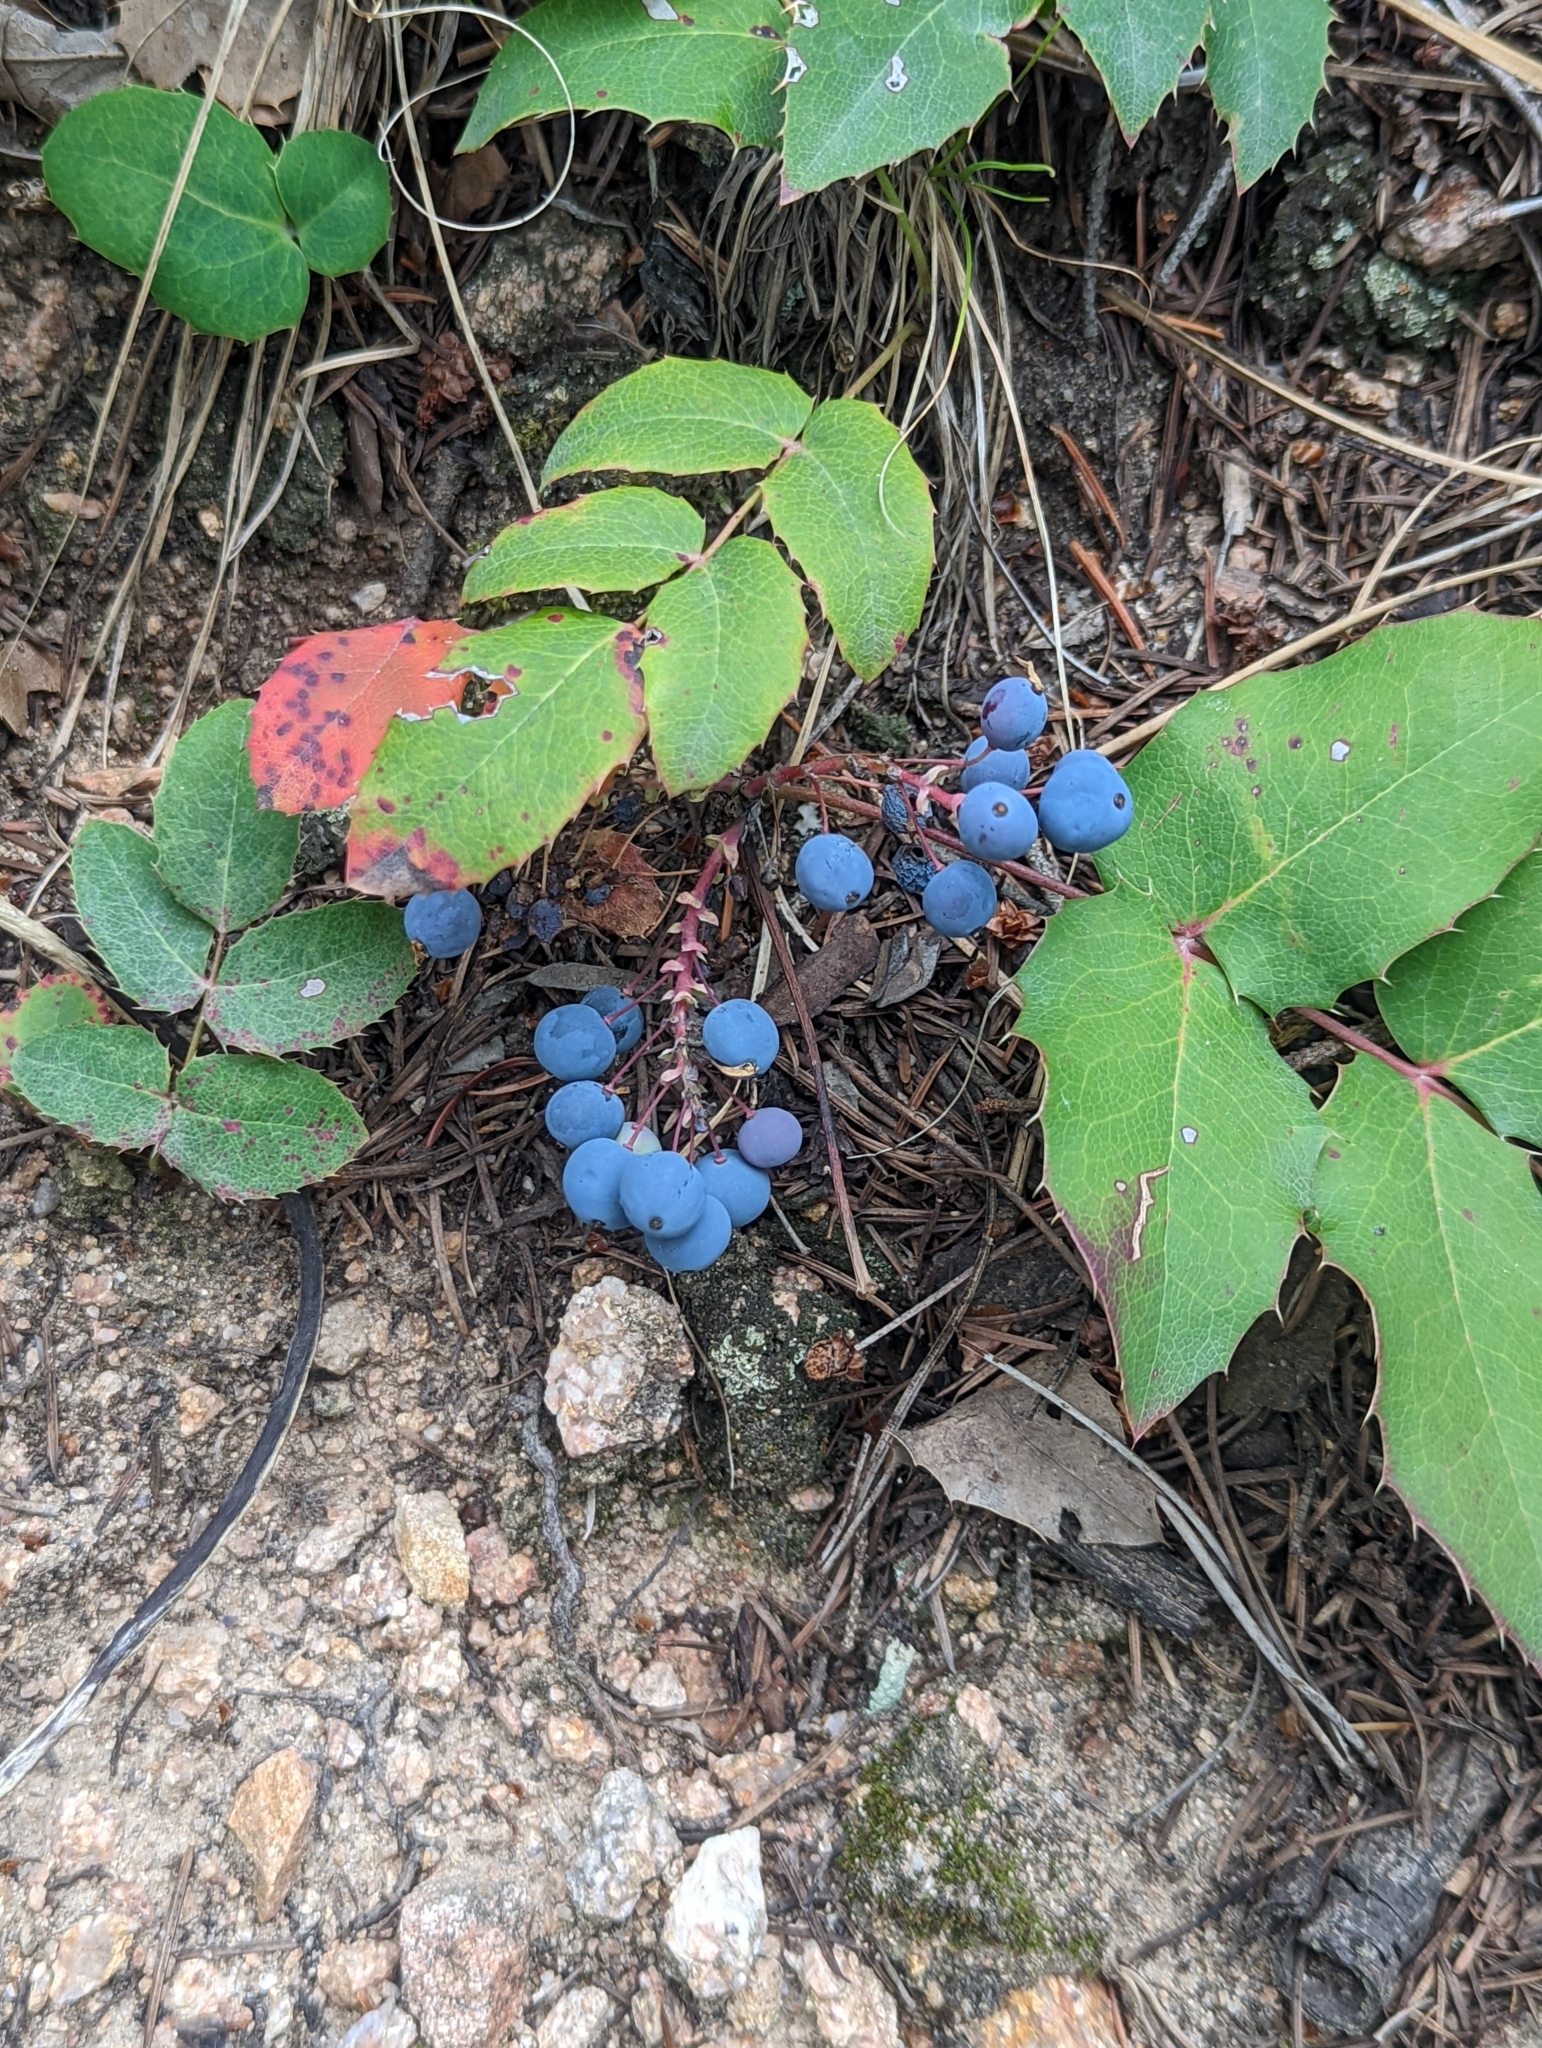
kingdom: Plantae
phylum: Tracheophyta
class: Magnoliopsida
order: Ranunculales
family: Berberidaceae
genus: Mahonia
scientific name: Mahonia repens
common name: Creeping oregon-grape
